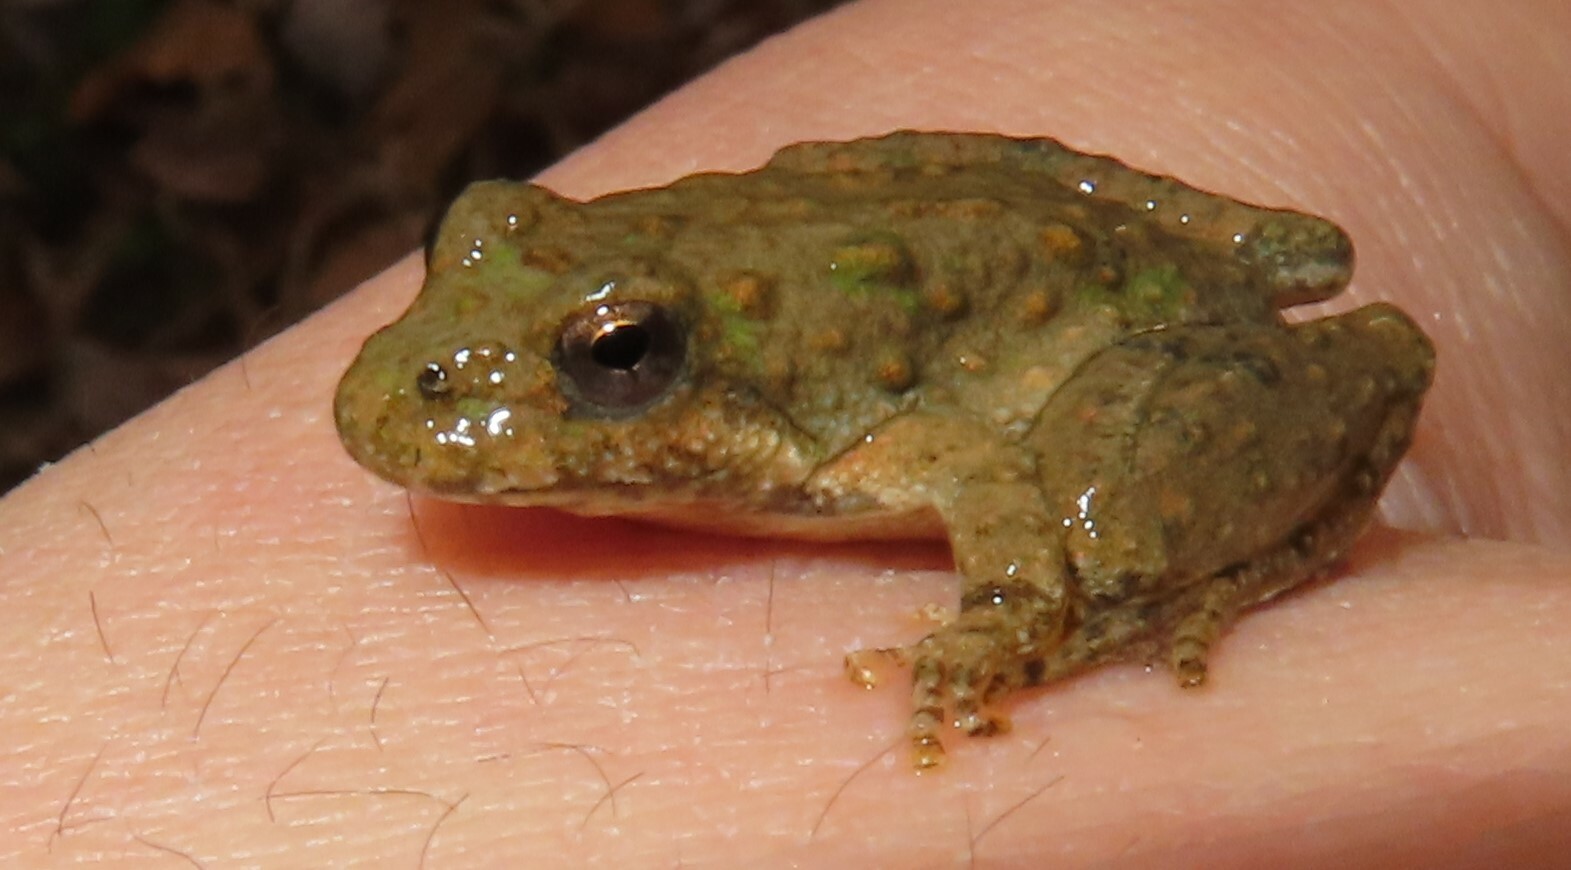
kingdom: Animalia
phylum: Chordata
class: Amphibia
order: Anura
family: Hylidae
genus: Acris
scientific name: Acris blanchardi
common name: Blanchard's cricket frog
